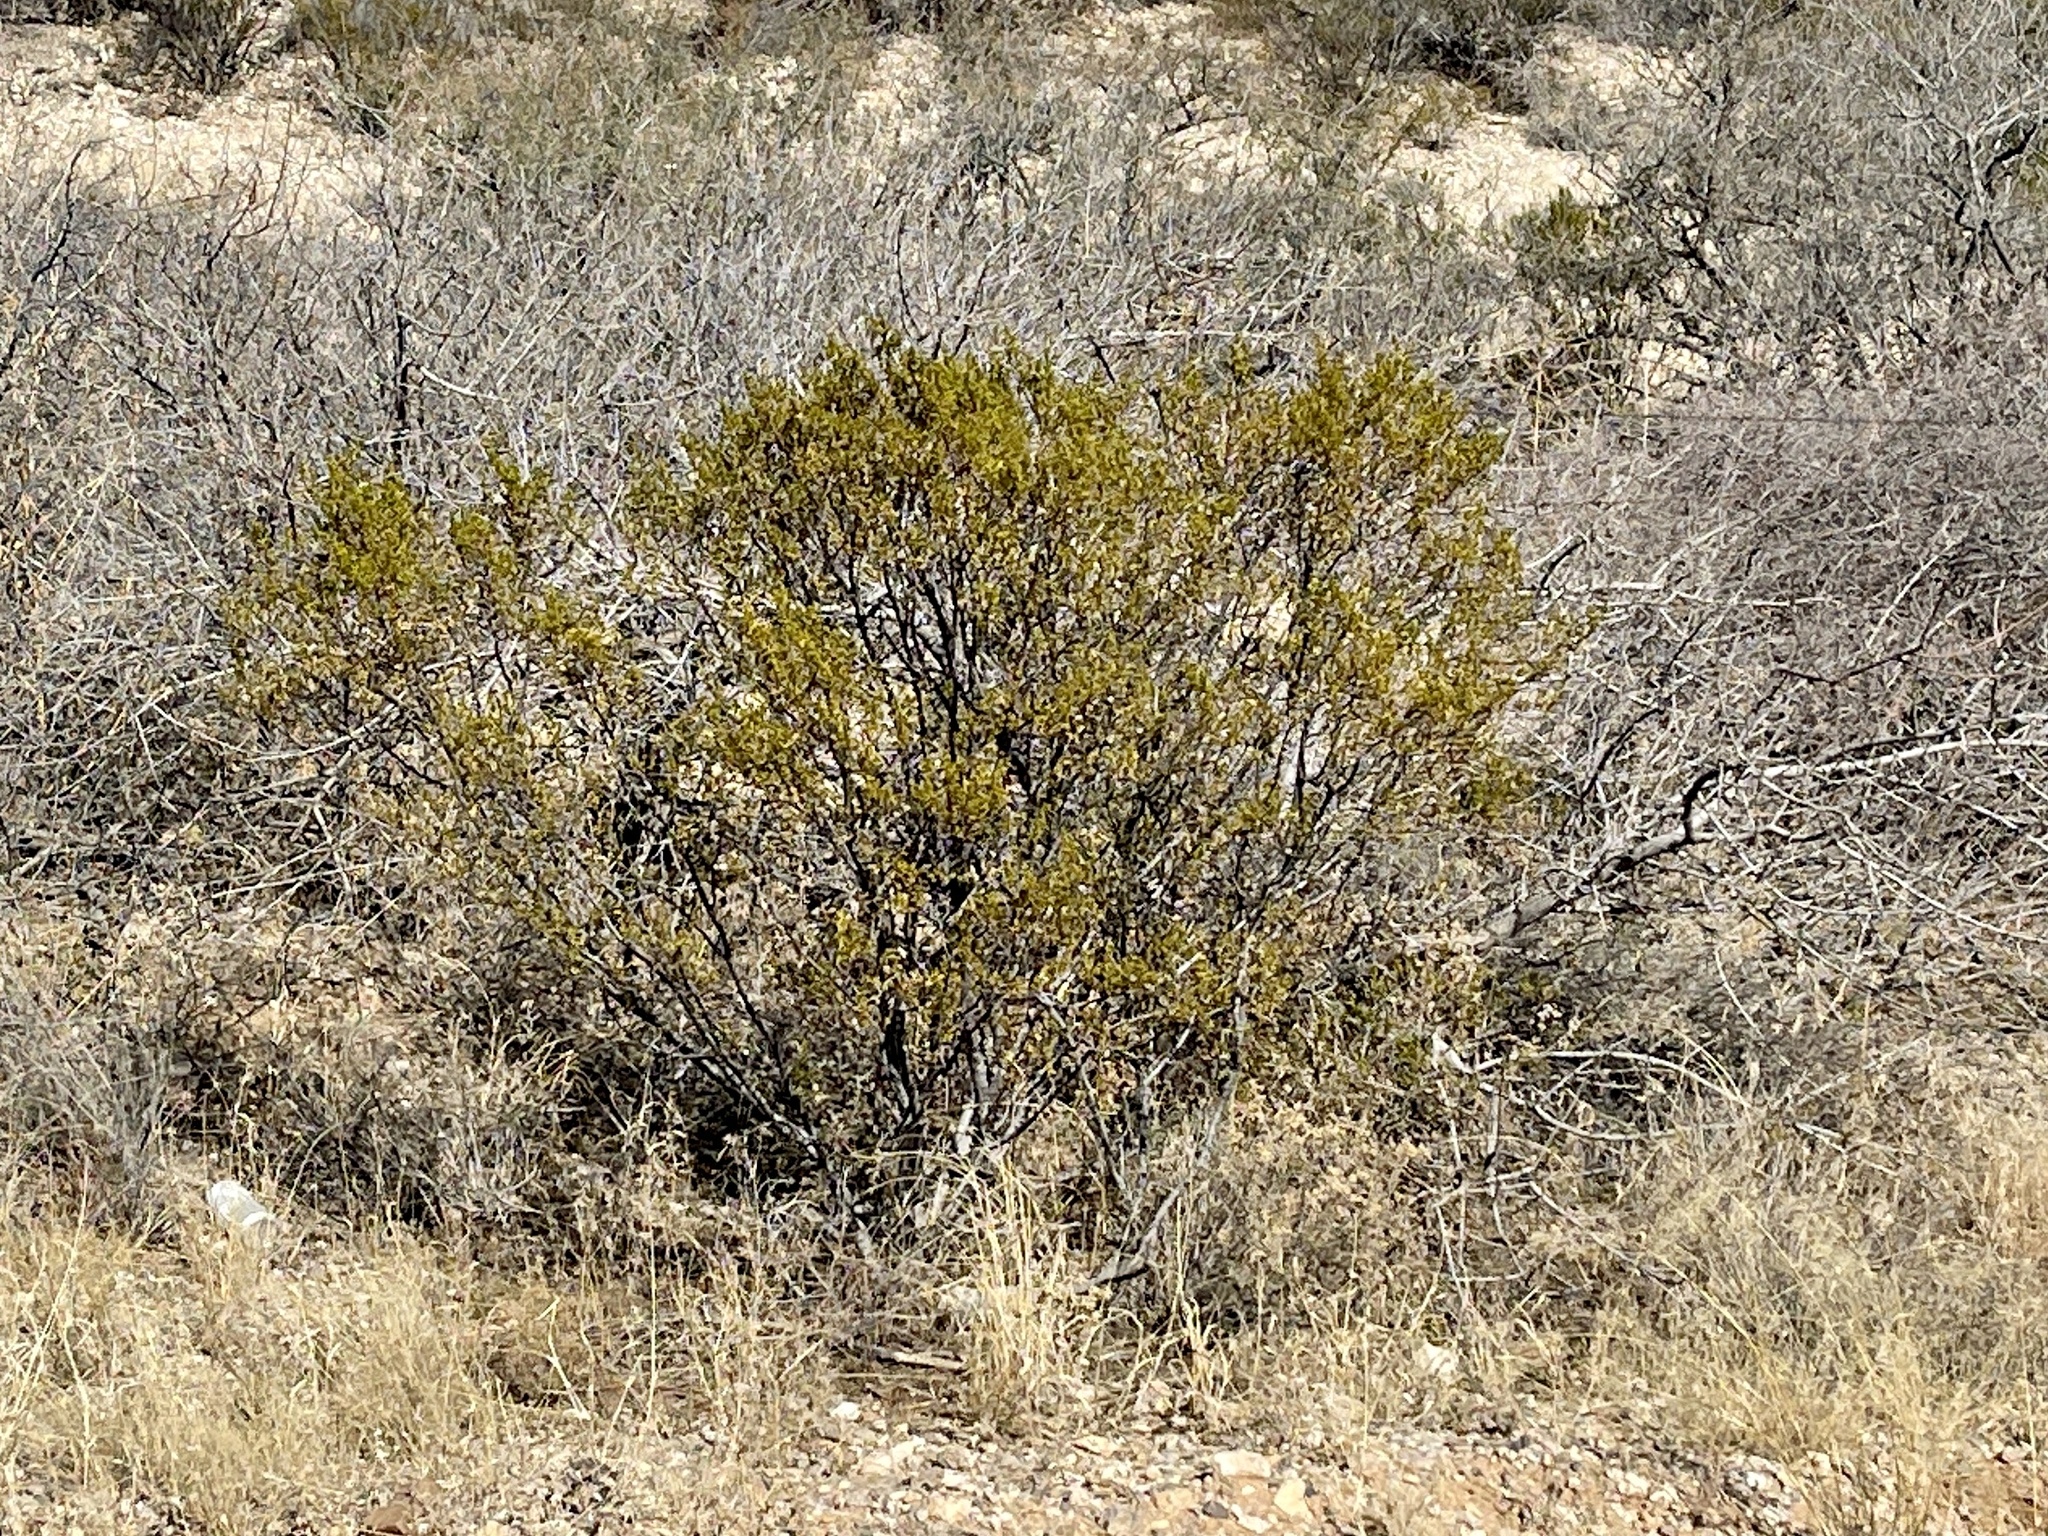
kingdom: Plantae
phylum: Tracheophyta
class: Magnoliopsida
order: Zygophyllales
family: Zygophyllaceae
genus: Larrea
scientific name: Larrea tridentata
